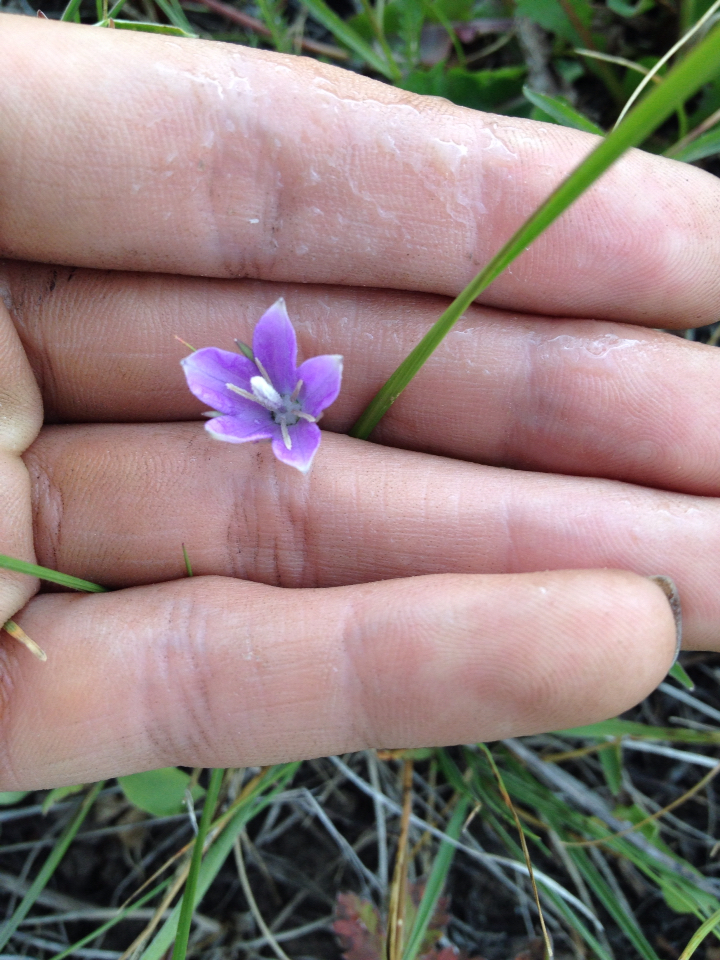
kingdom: Plantae
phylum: Tracheophyta
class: Magnoliopsida
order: Asterales
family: Campanulaceae
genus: Campanula
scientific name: Campanula parryi
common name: Rocky mountain bellflower
